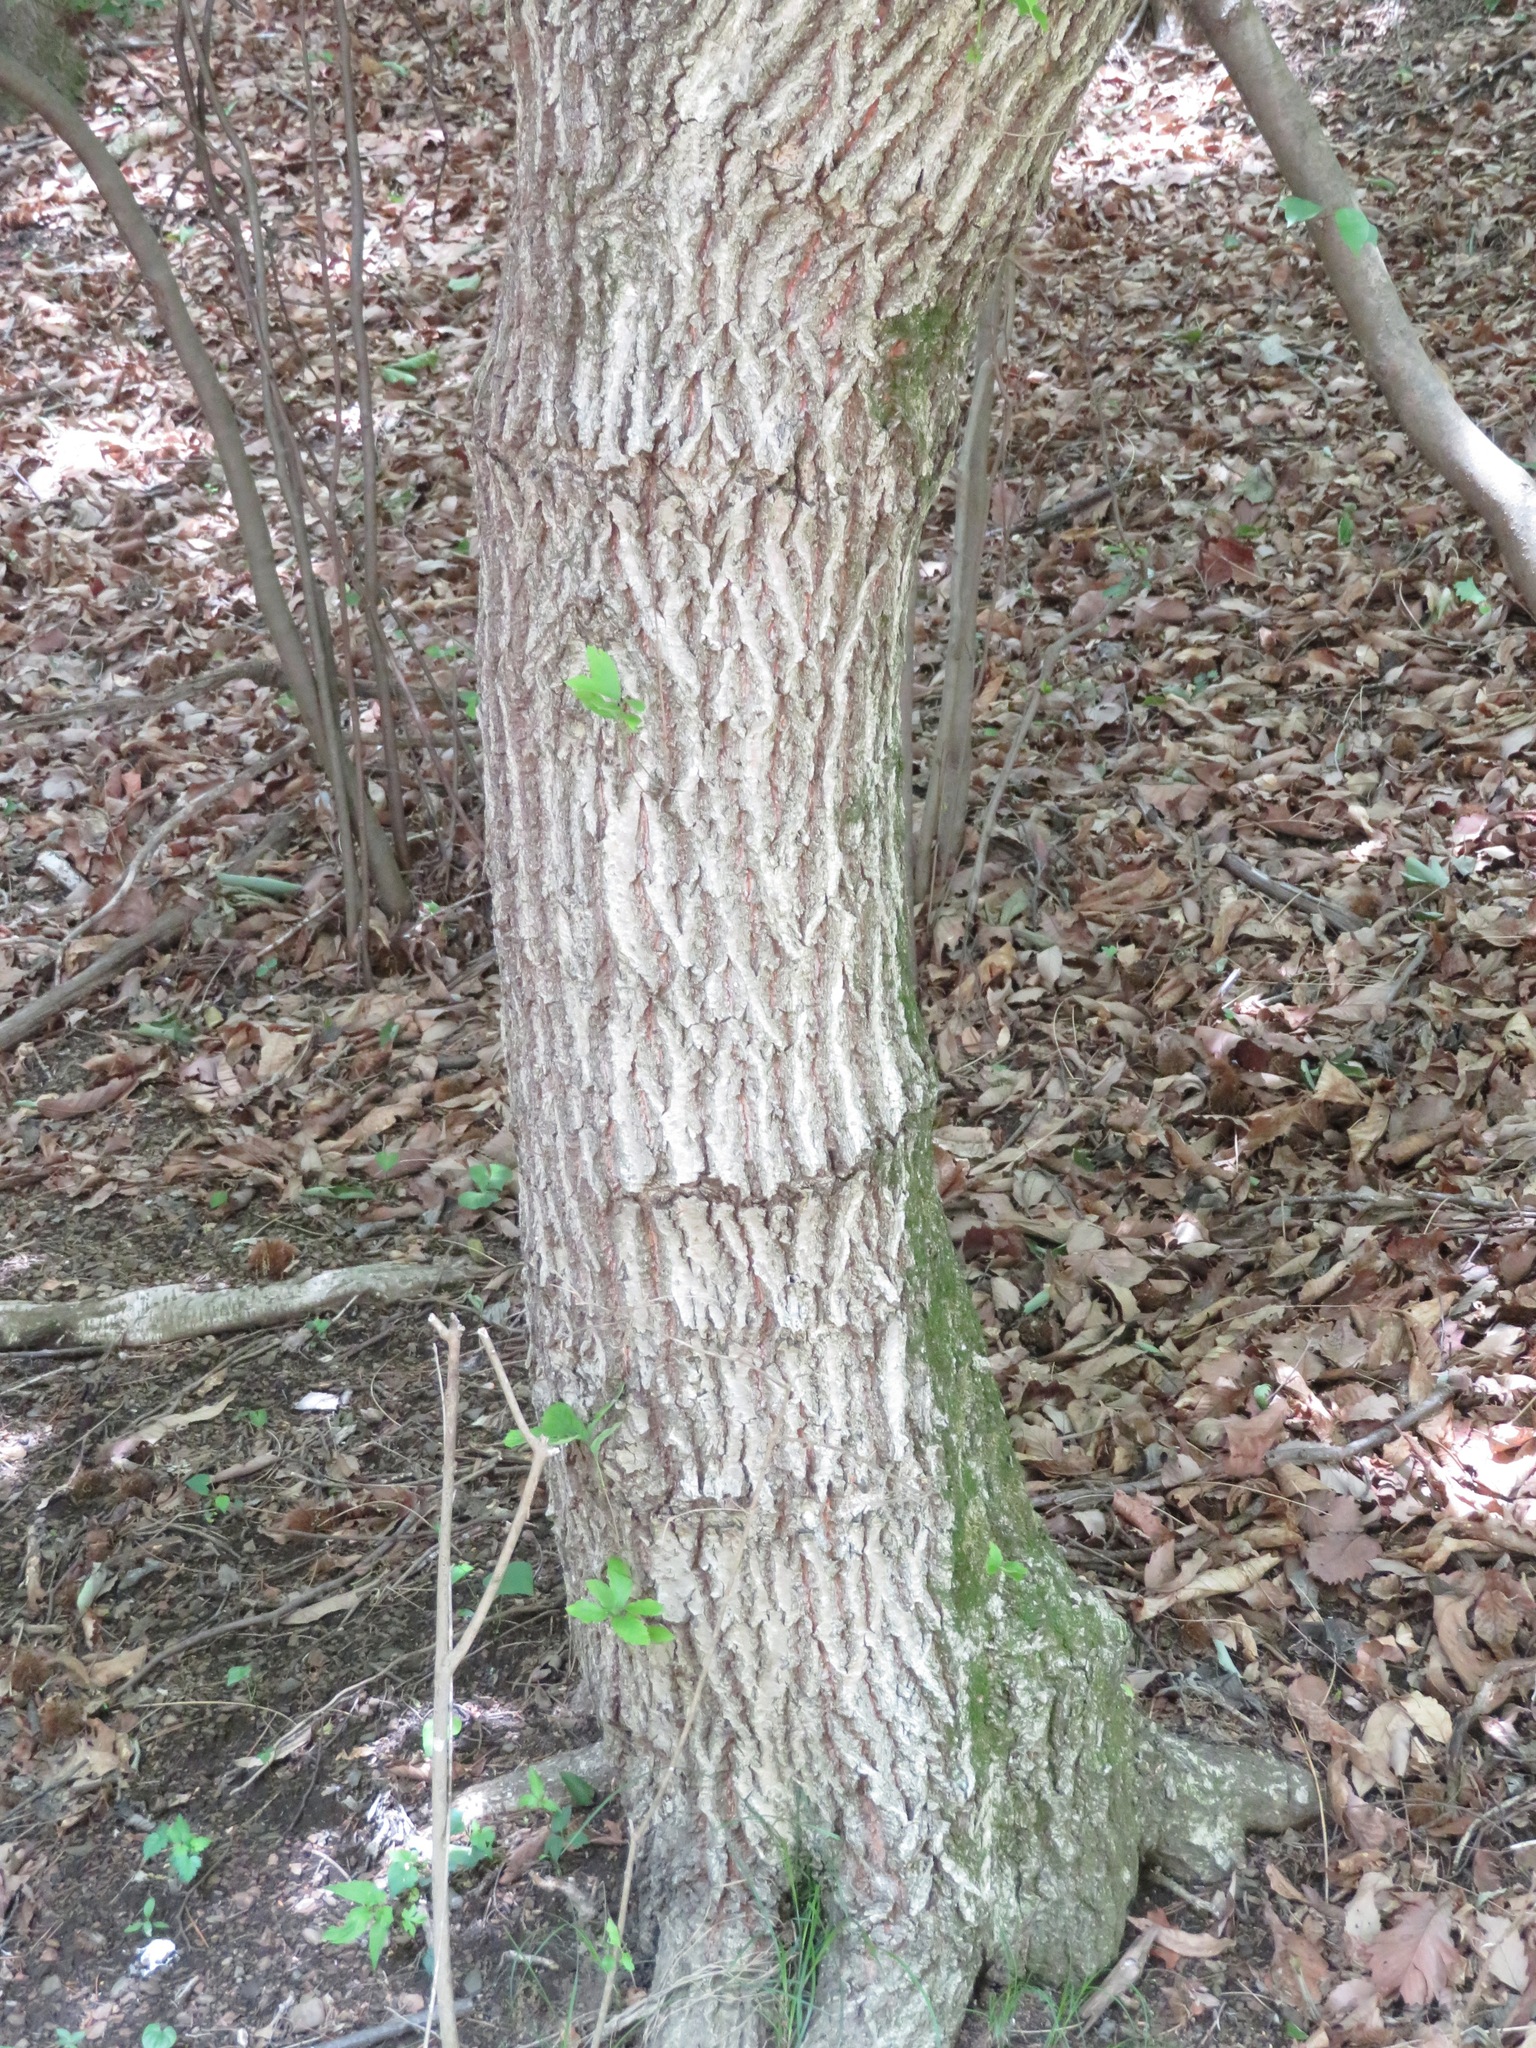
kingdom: Plantae
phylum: Tracheophyta
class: Magnoliopsida
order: Fagales
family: Fagaceae
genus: Quercus
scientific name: Quercus serrata
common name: Bao li
